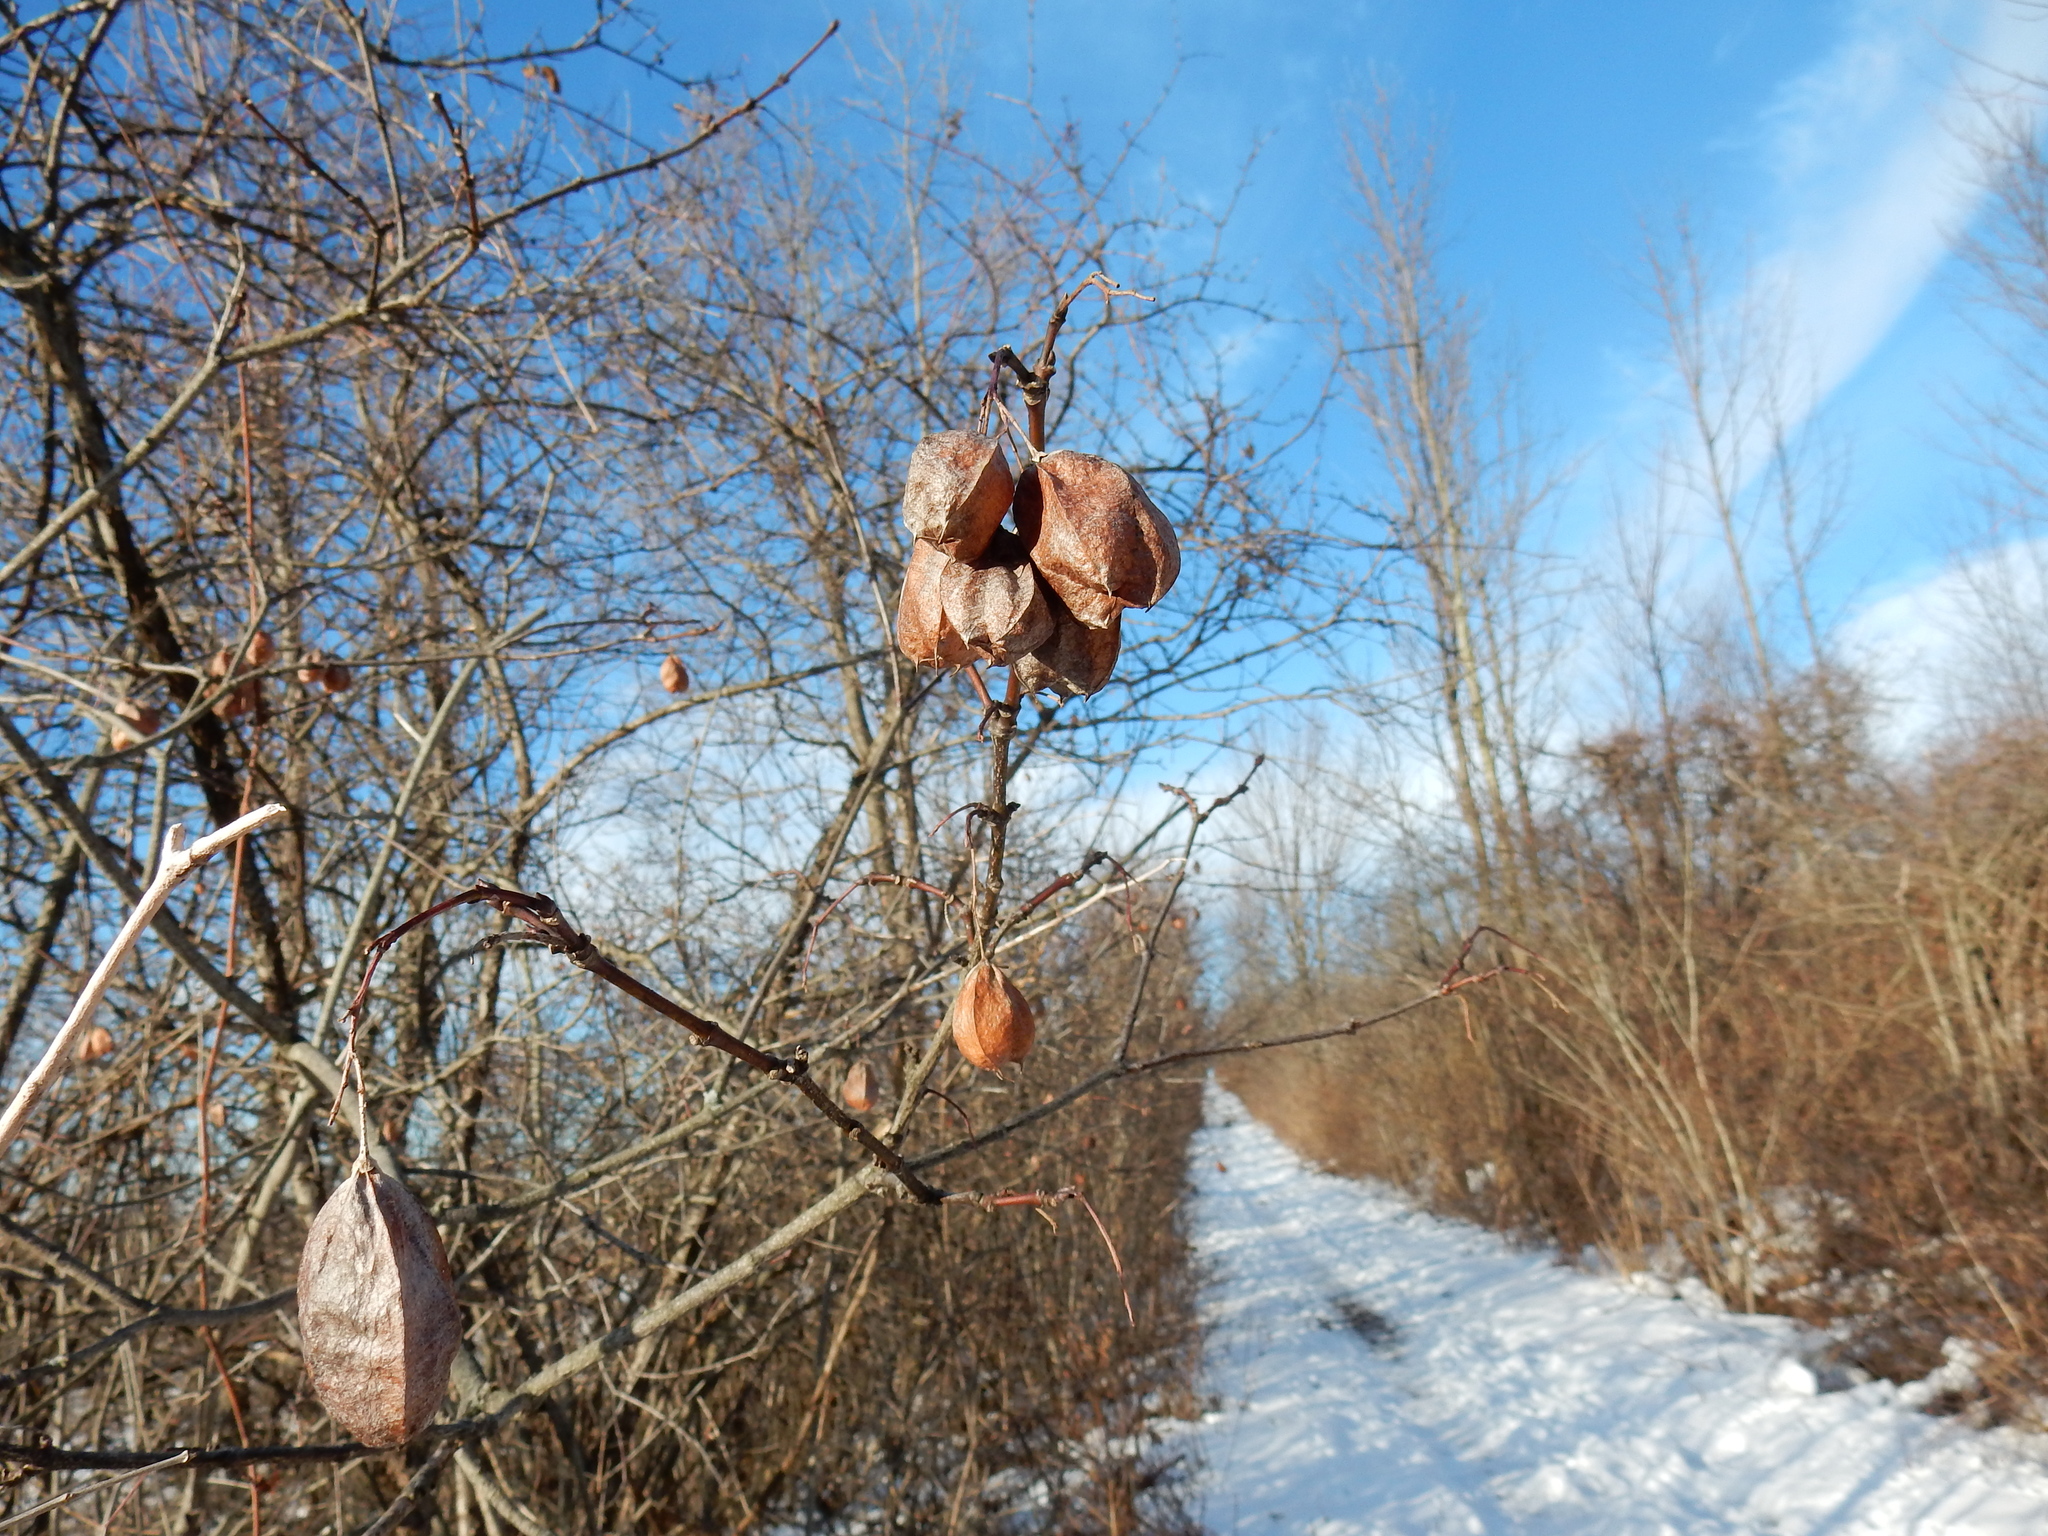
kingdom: Plantae
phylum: Tracheophyta
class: Magnoliopsida
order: Crossosomatales
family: Staphyleaceae
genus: Staphylea
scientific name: Staphylea trifolia
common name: American bladdernut
